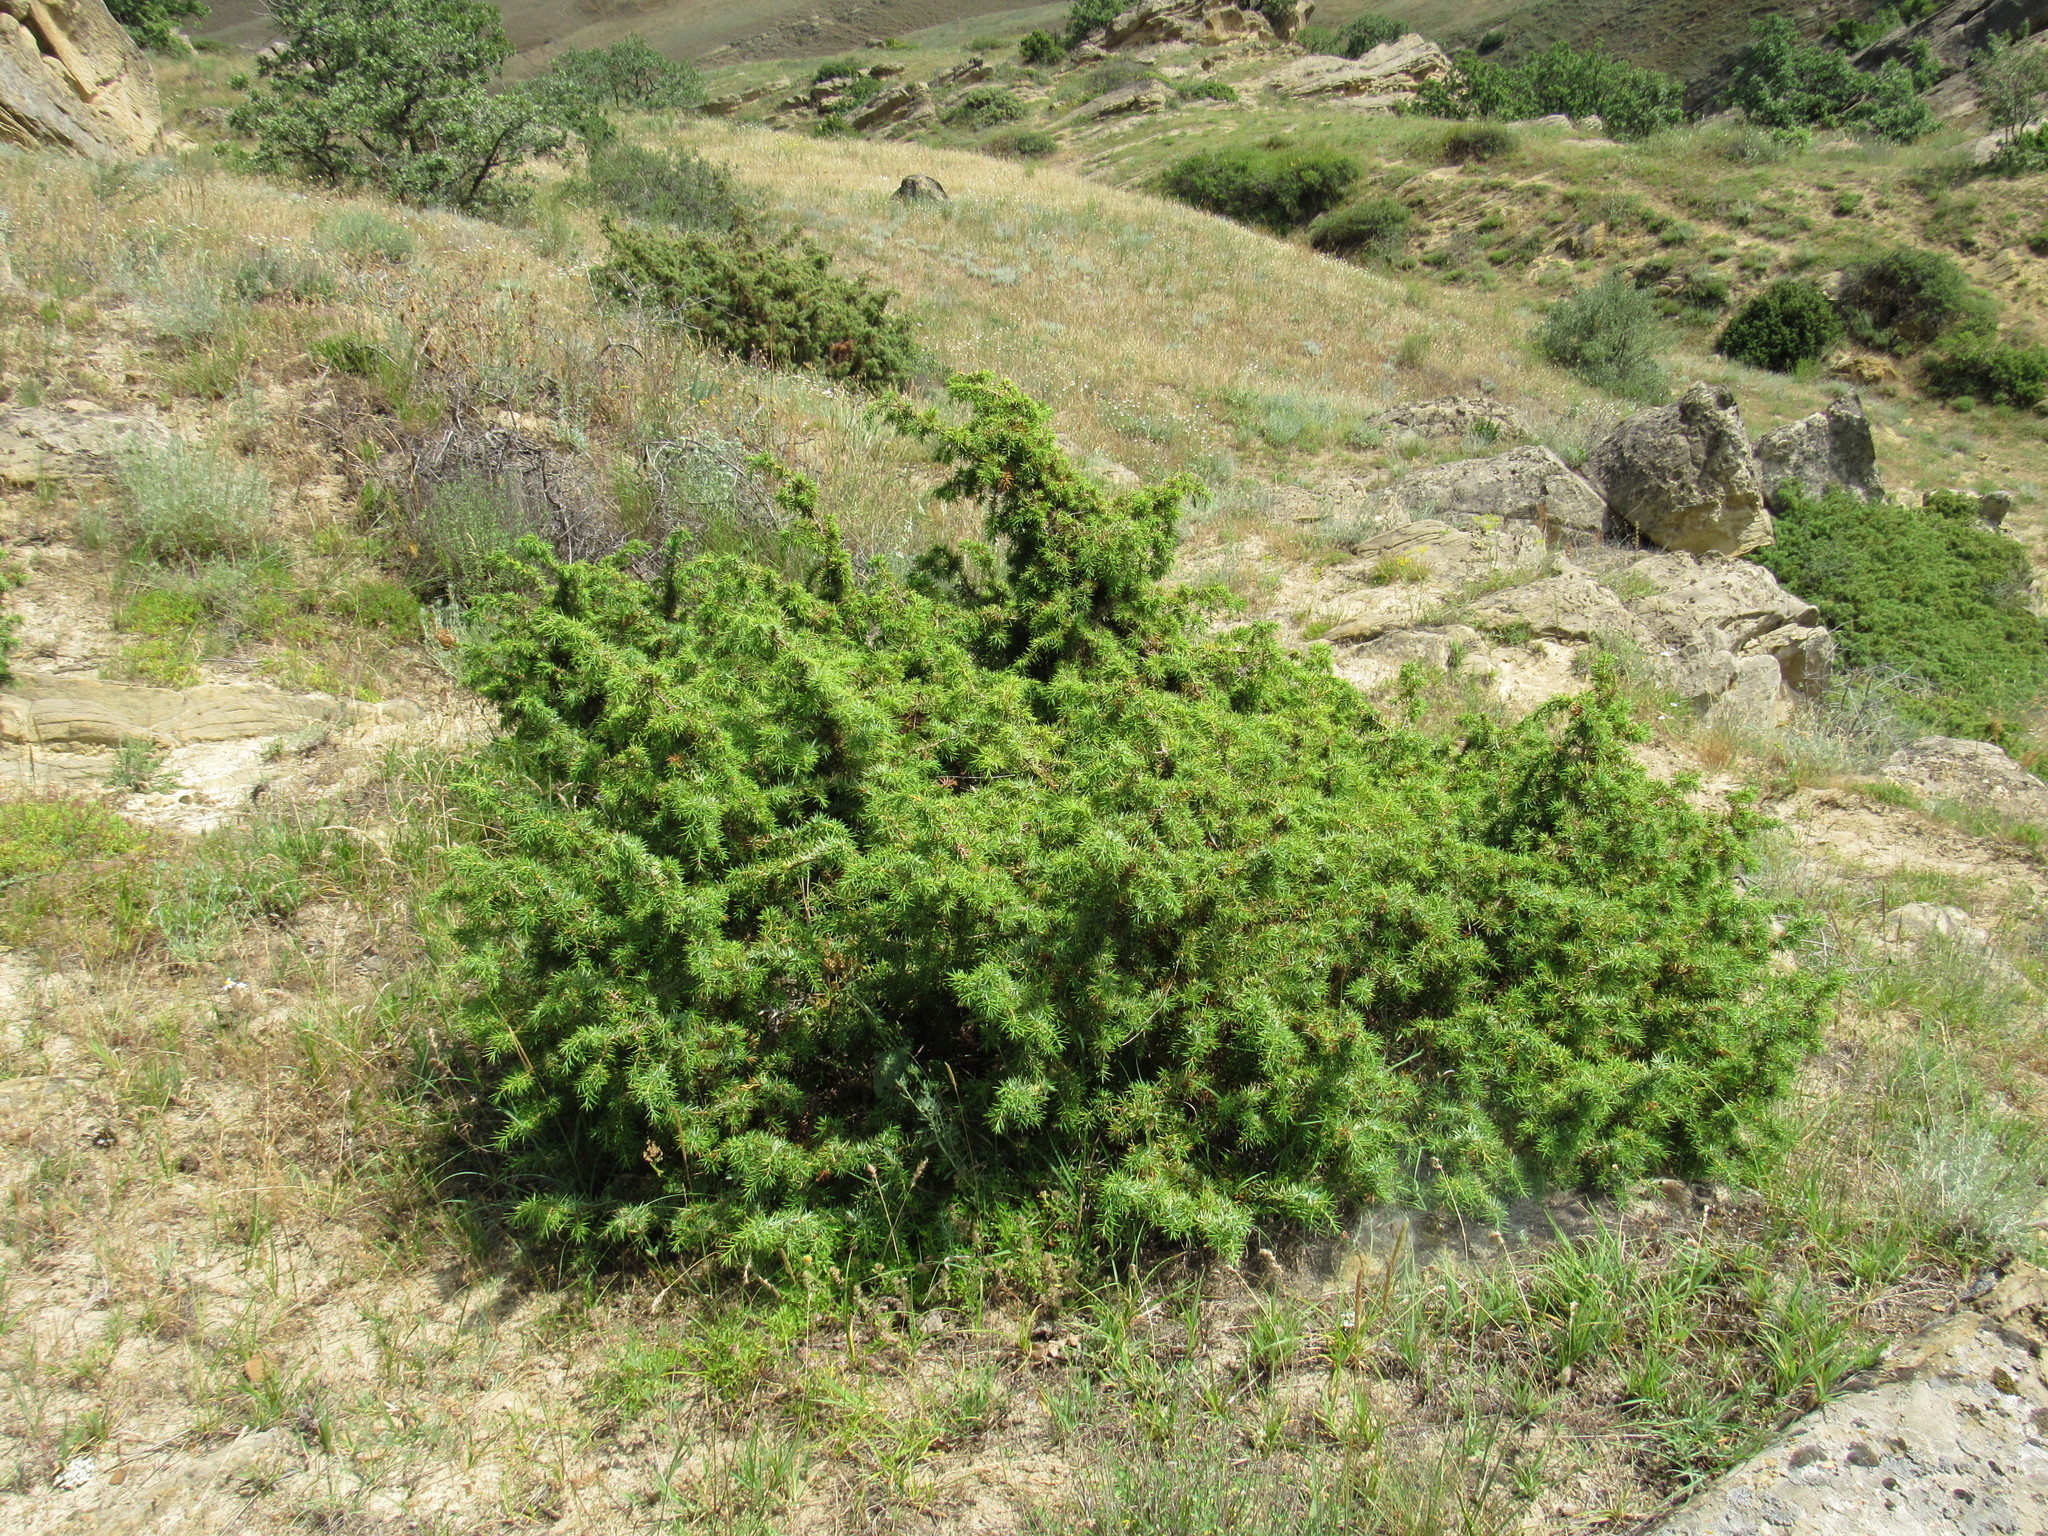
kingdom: Plantae
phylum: Tracheophyta
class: Pinopsida
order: Pinales
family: Cupressaceae
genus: Juniperus
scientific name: Juniperus communis
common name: Common juniper
